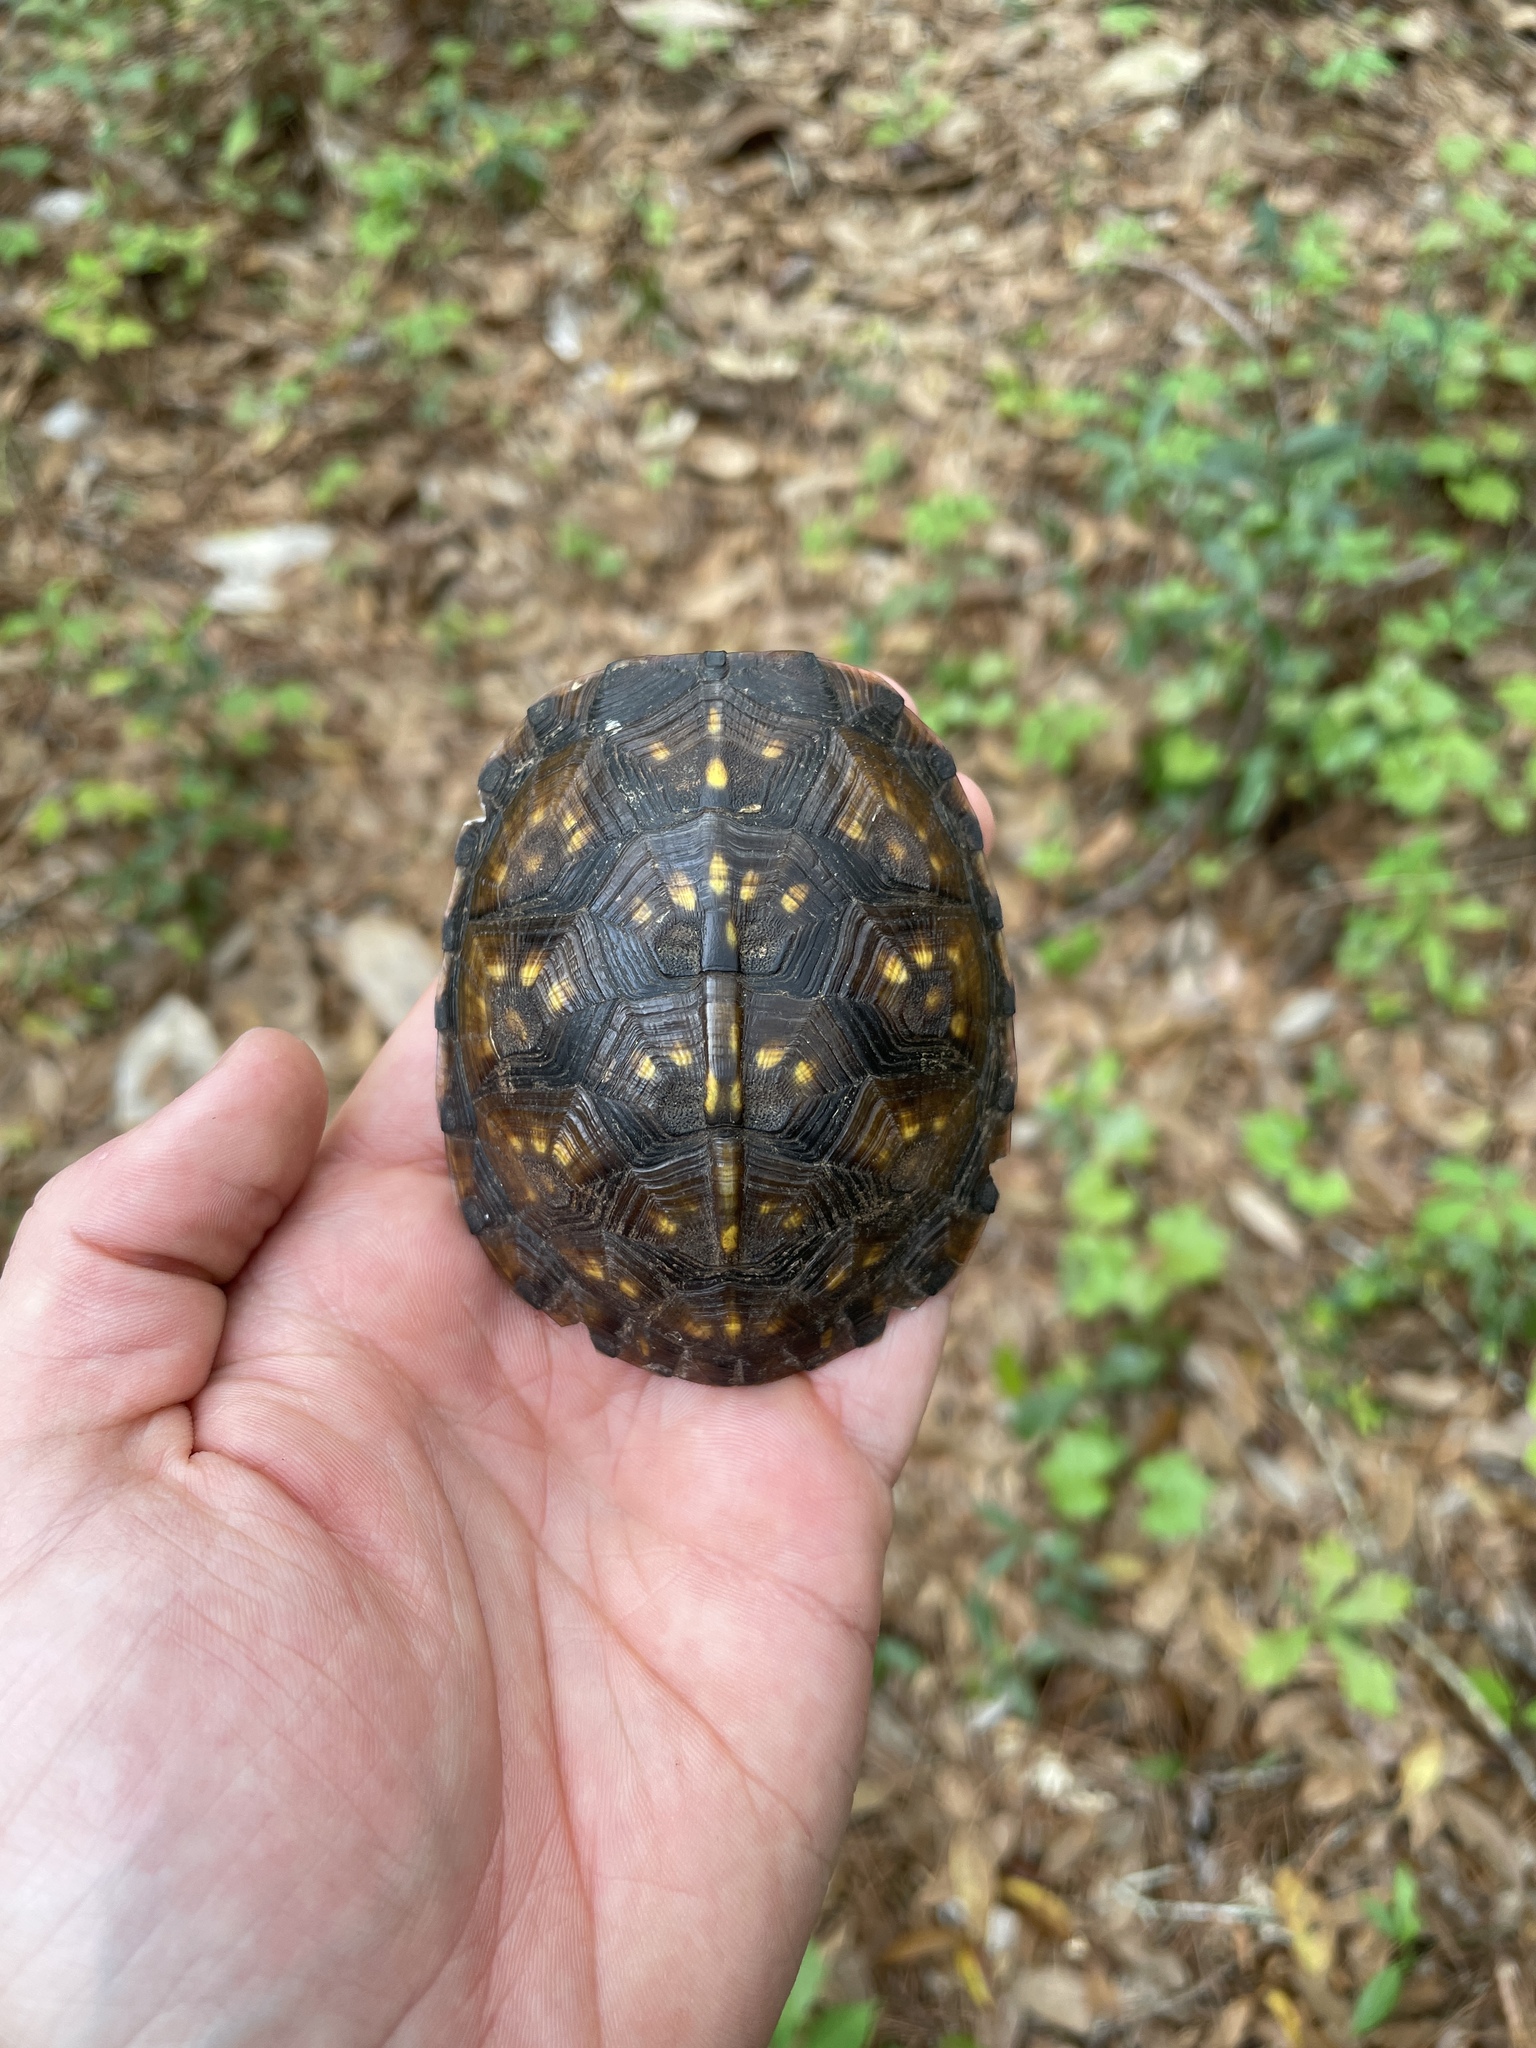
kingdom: Animalia
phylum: Chordata
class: Testudines
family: Emydidae
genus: Terrapene
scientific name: Terrapene carolina
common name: Common box turtle
